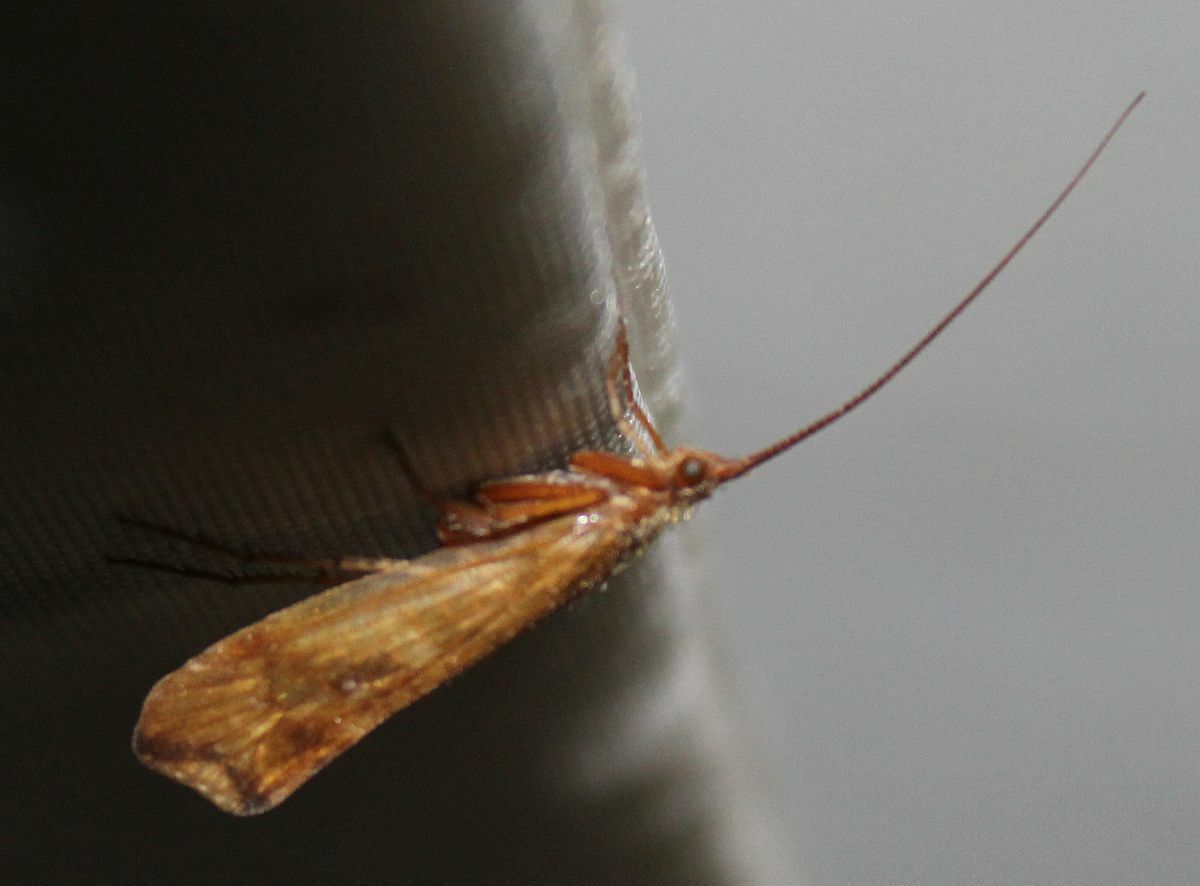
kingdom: Animalia
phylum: Arthropoda
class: Insecta
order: Trichoptera
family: Limnephilidae
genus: Limnephilus
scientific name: Limnephilus lunatus
